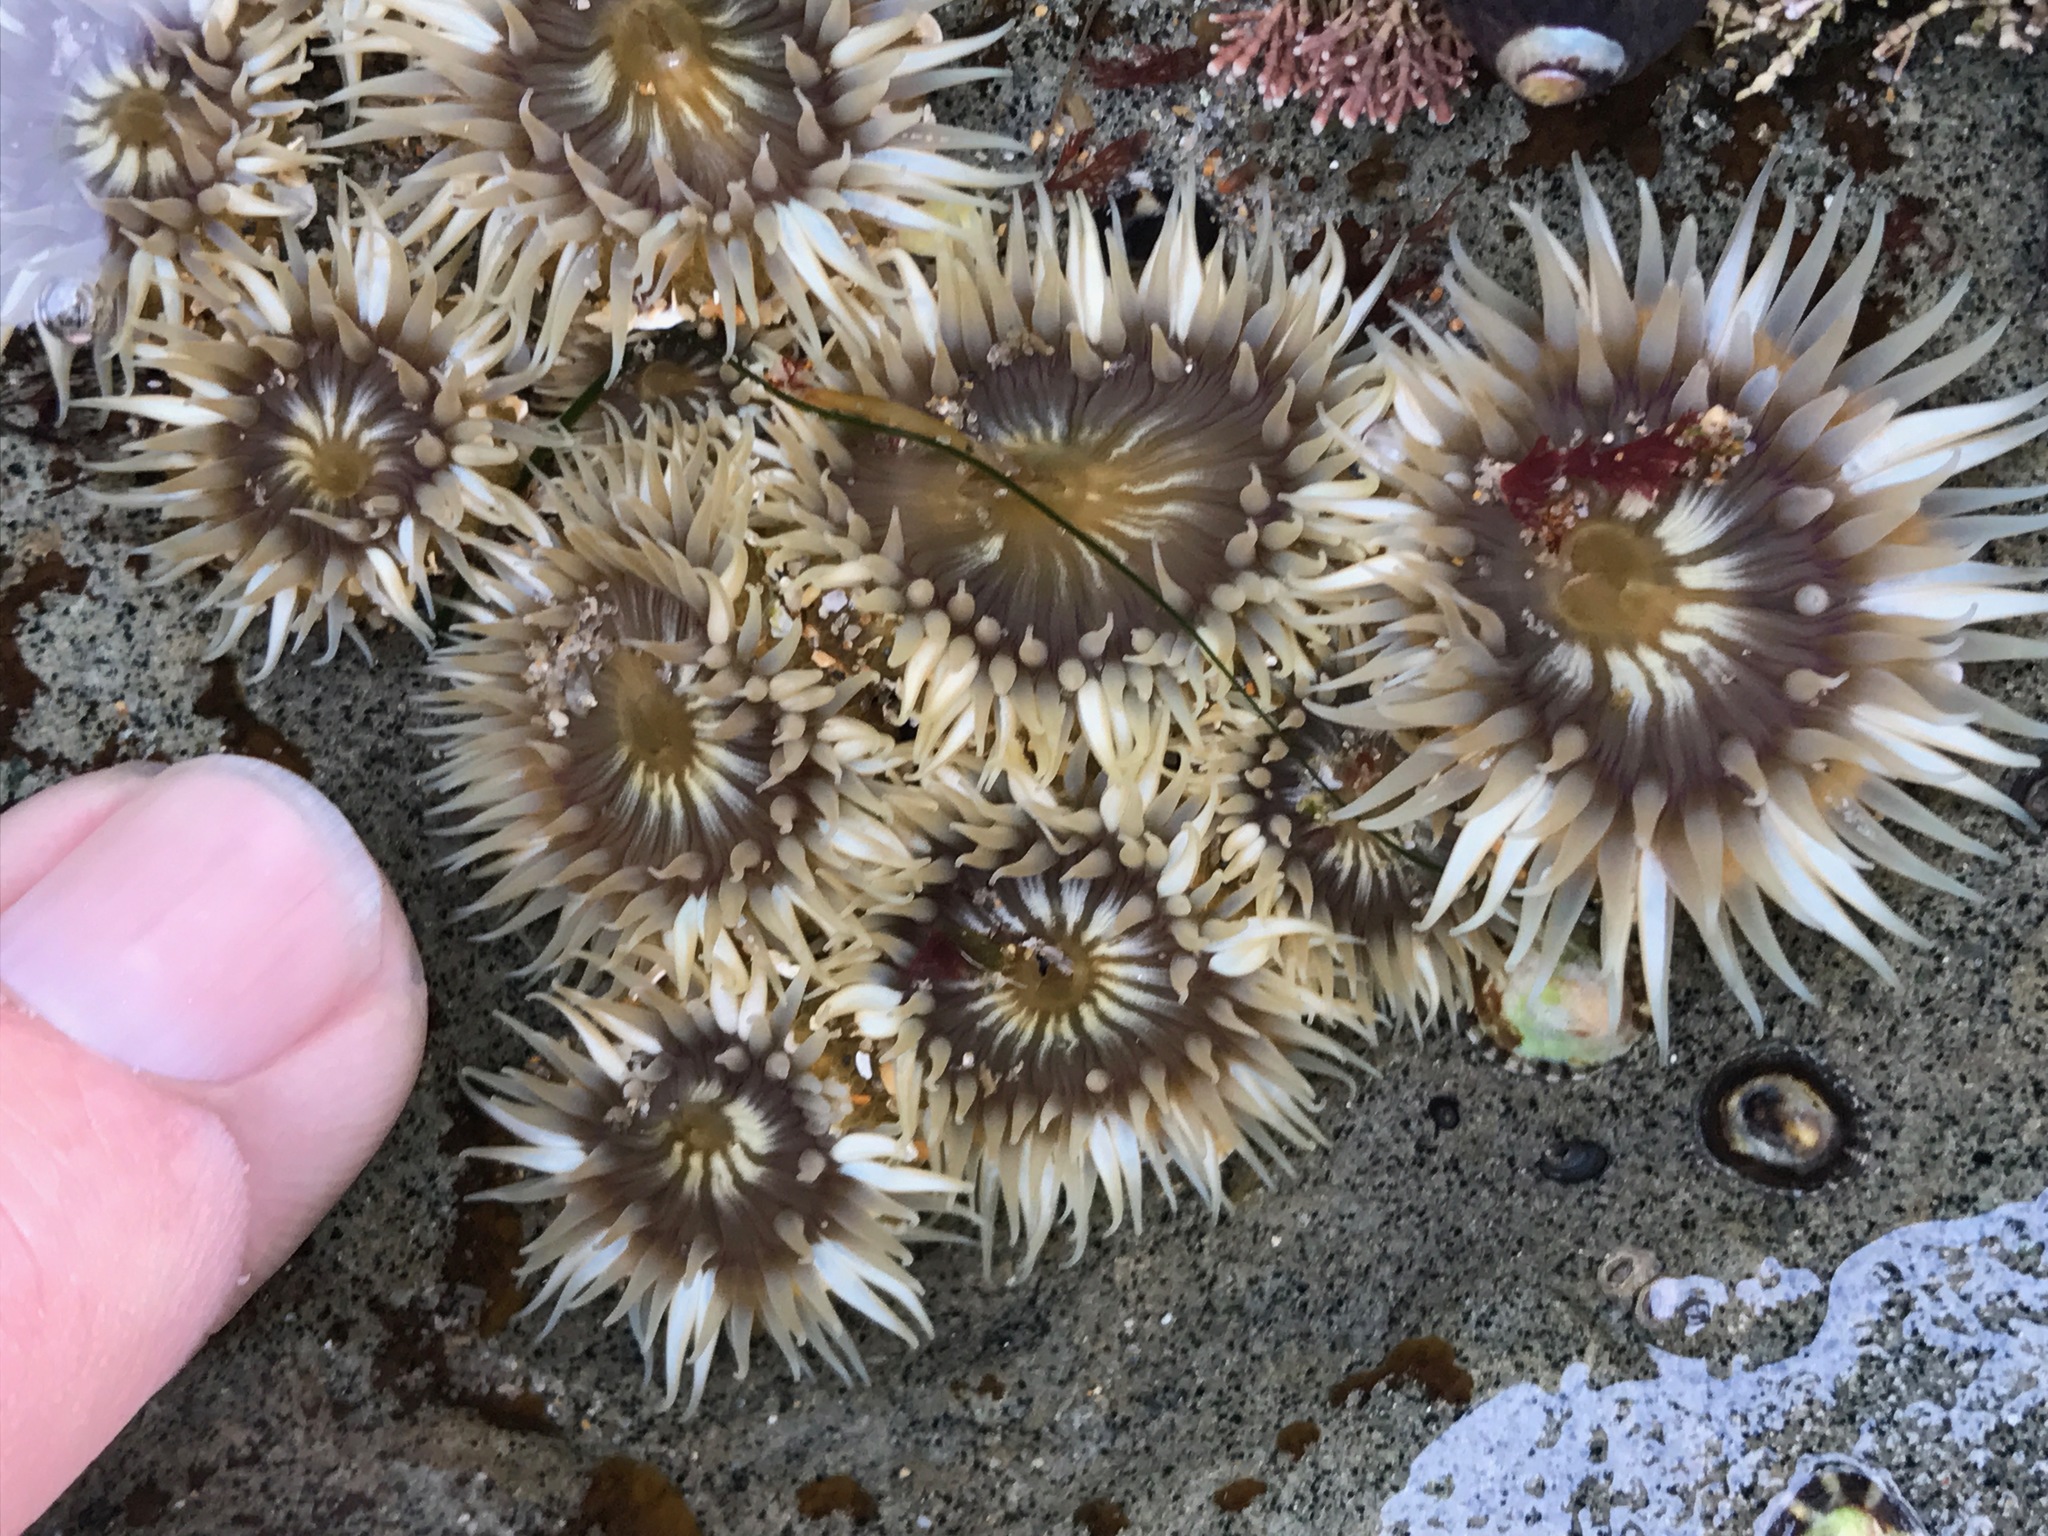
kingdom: Animalia
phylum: Cnidaria
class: Anthozoa
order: Actiniaria
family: Actiniidae
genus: Anthopleura
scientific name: Anthopleura elegantissima
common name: Clonal anemone
